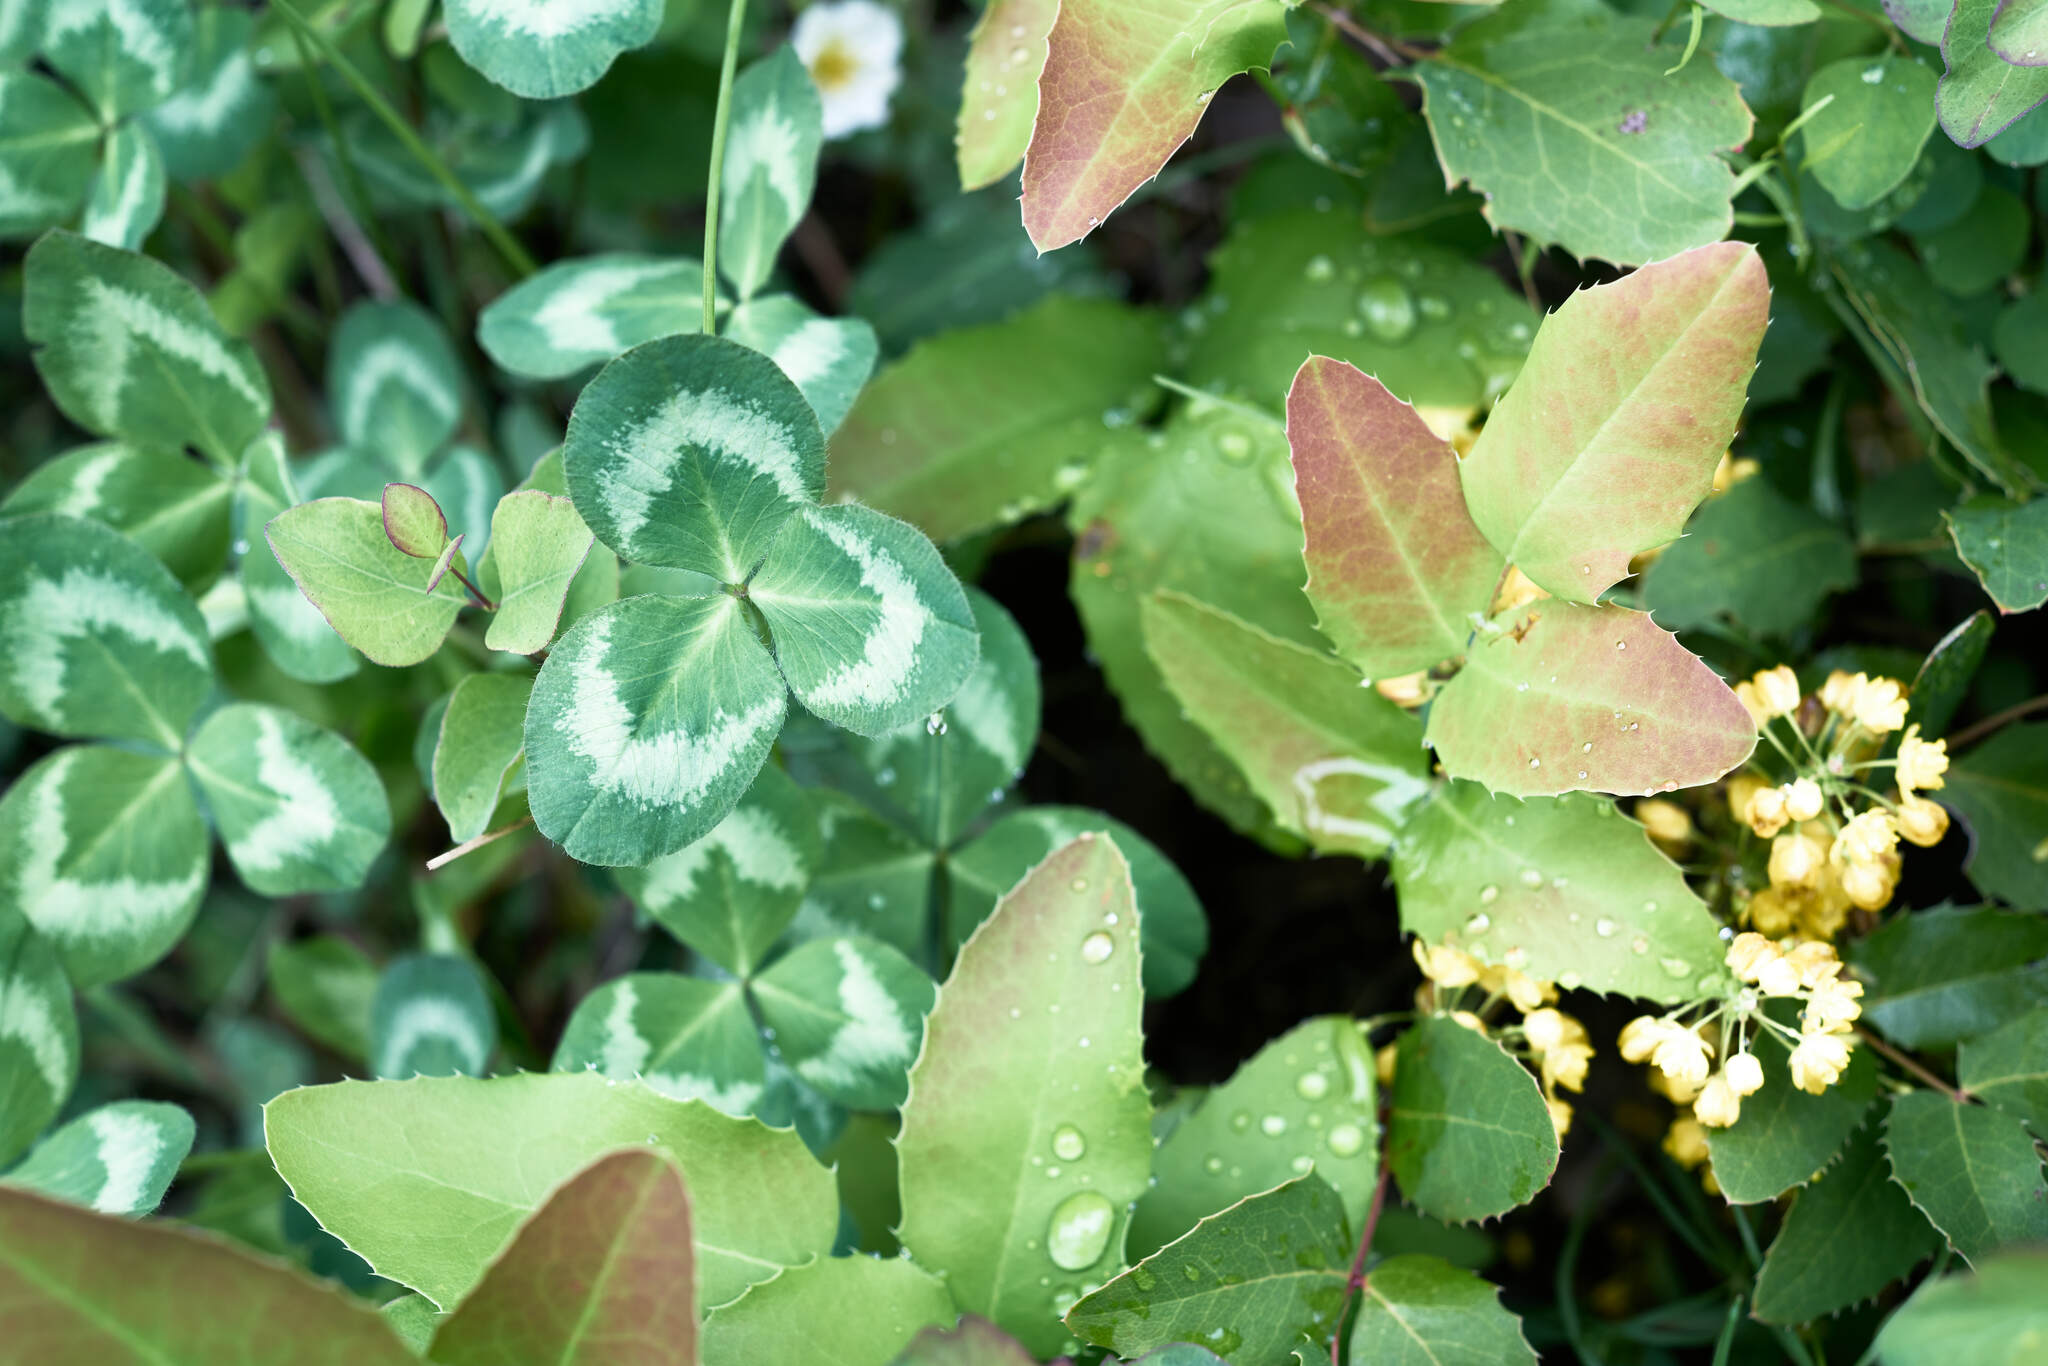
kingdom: Plantae
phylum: Tracheophyta
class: Magnoliopsida
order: Ranunculales
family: Berberidaceae
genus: Mahonia
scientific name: Mahonia repens
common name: Creeping oregon-grape
